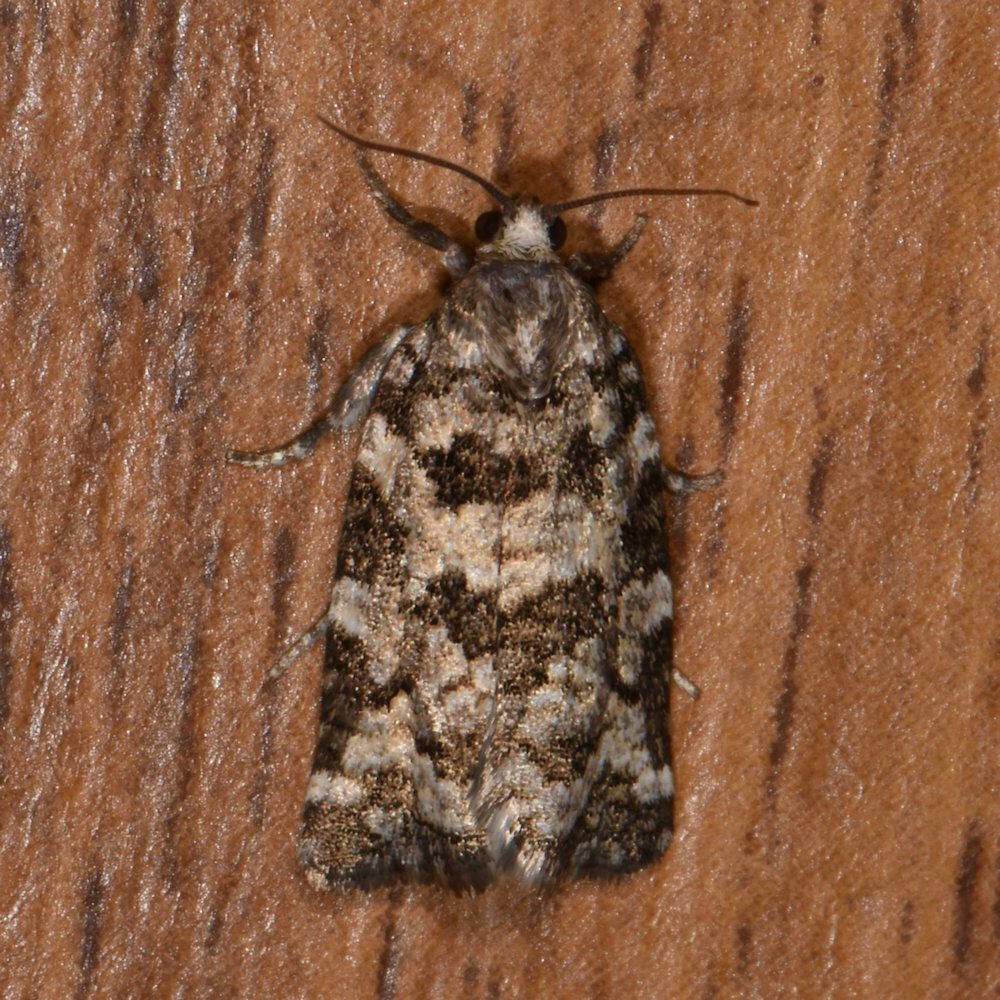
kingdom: Animalia
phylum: Arthropoda
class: Insecta
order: Lepidoptera
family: Tortricidae
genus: Archips
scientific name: Archips packardiana
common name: Spring spruce needle moth
